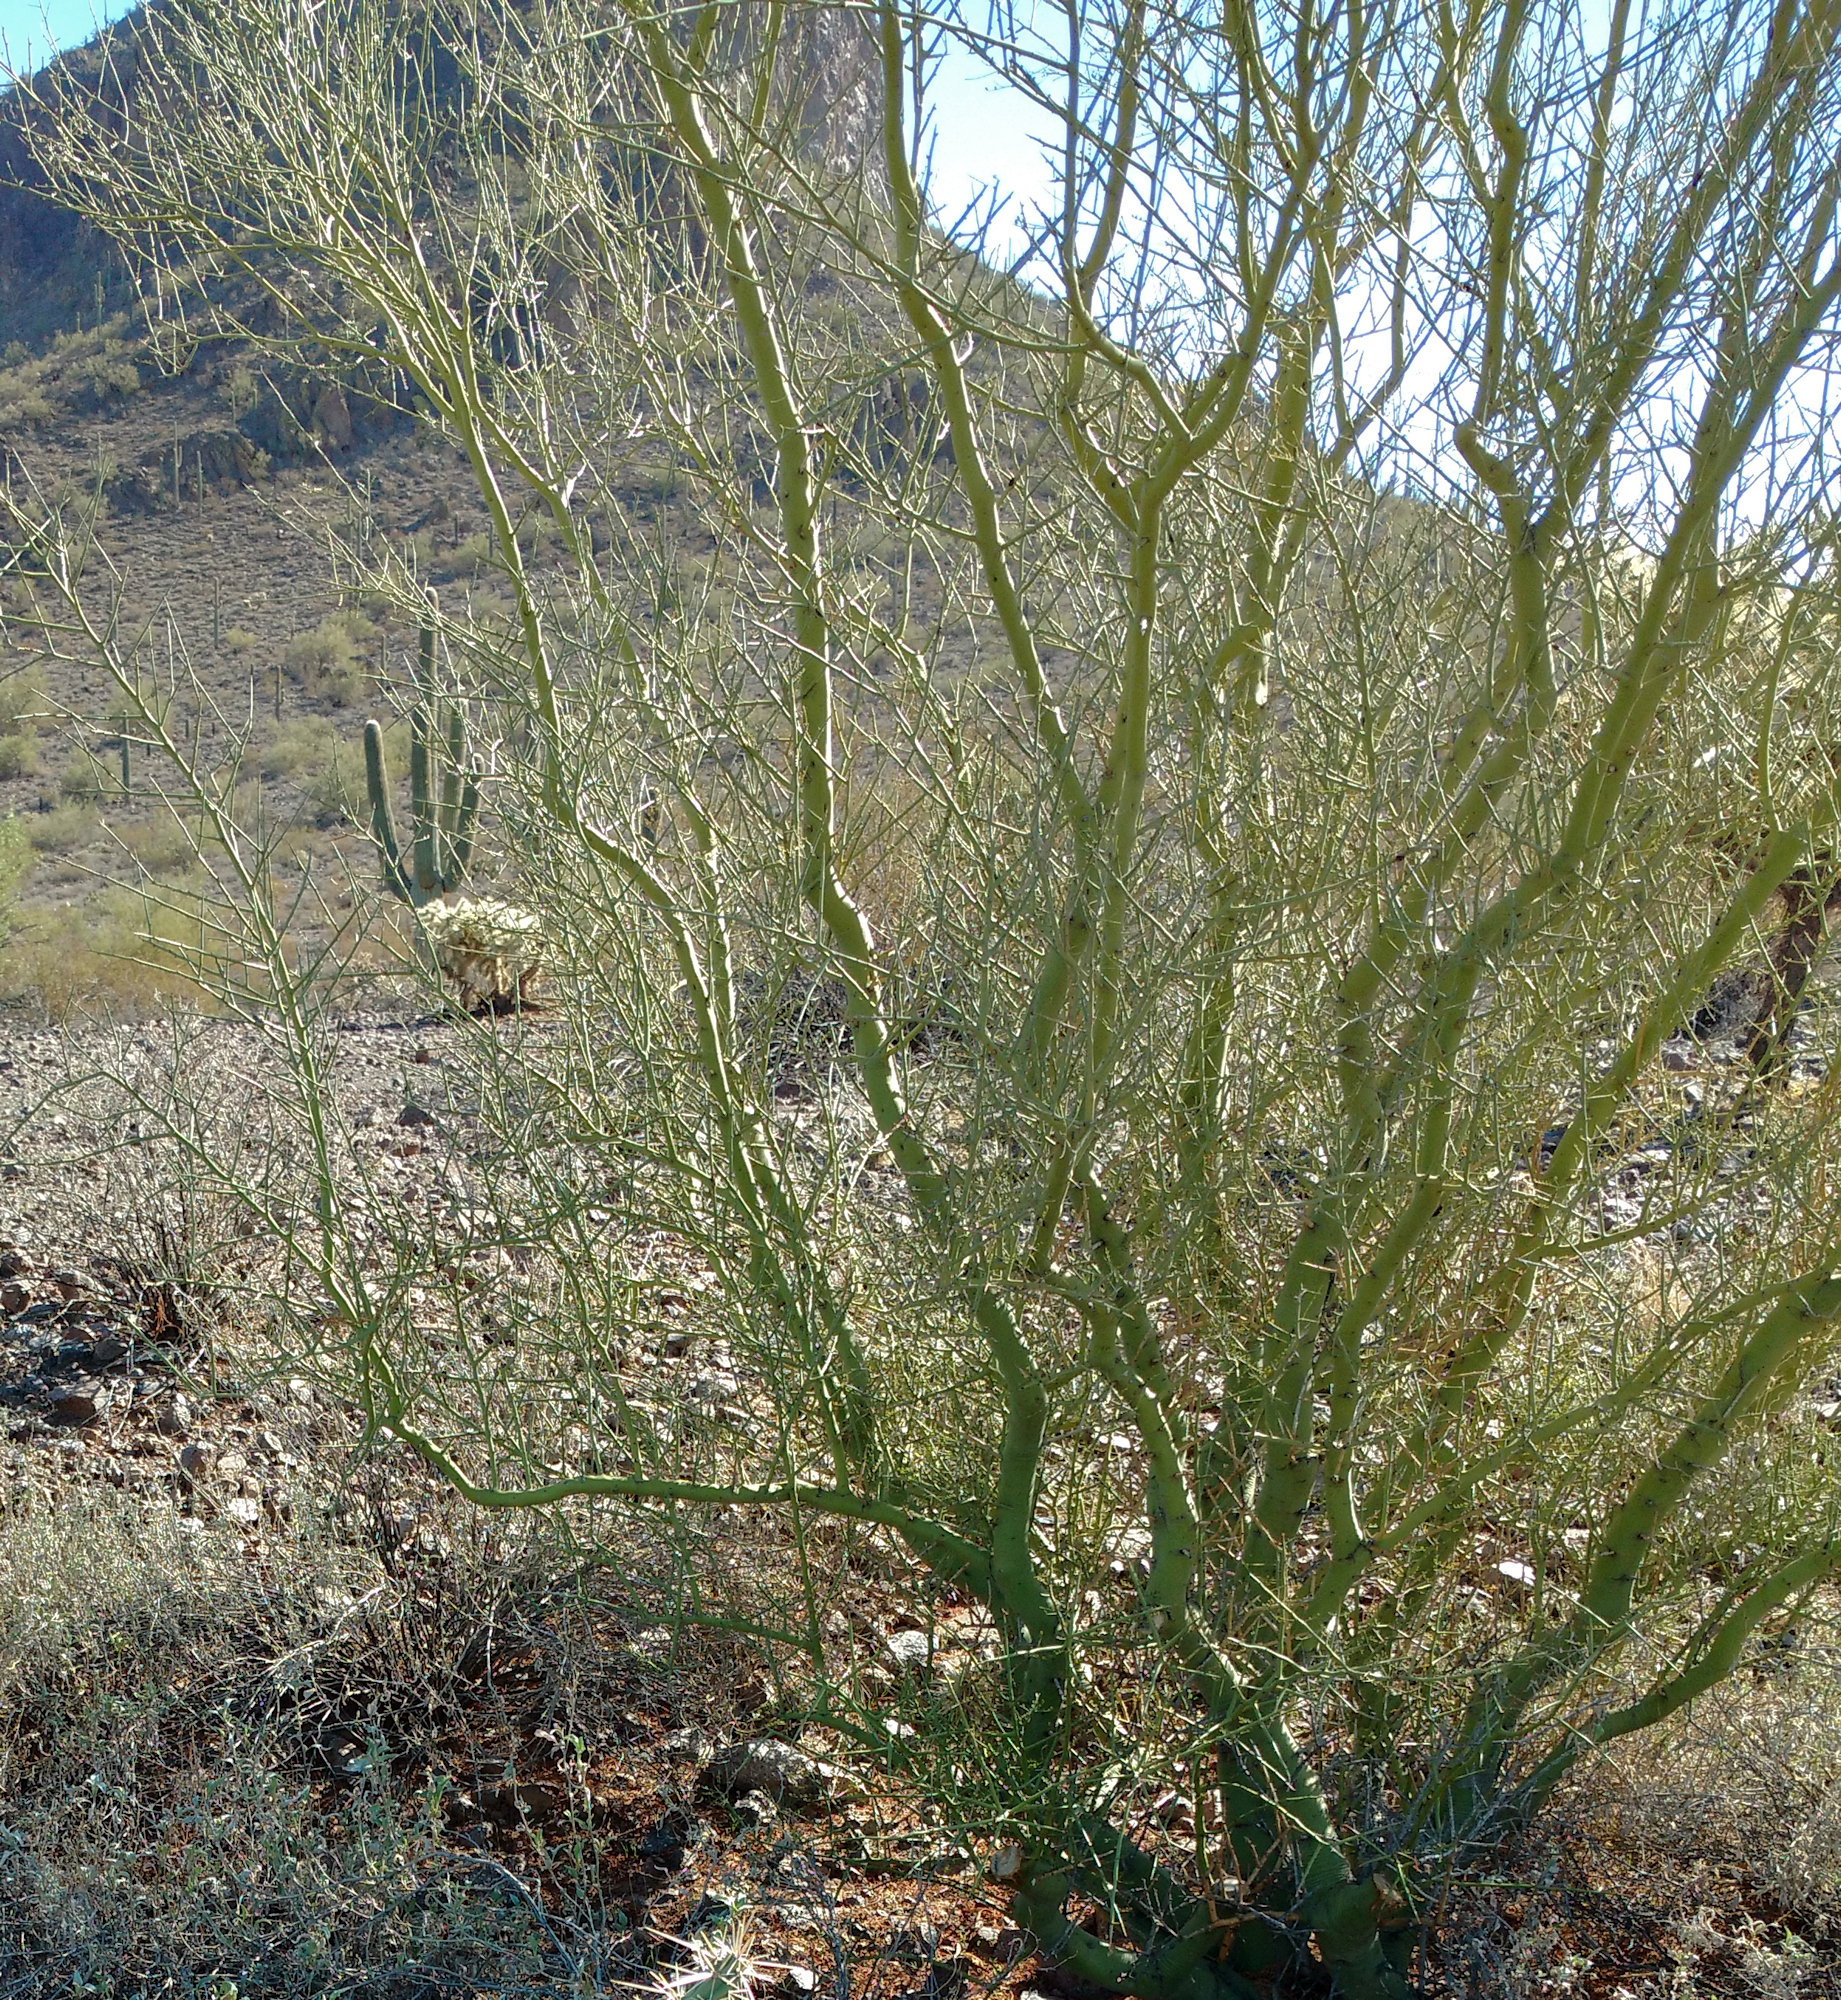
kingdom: Plantae
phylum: Tracheophyta
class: Magnoliopsida
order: Fabales
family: Fabaceae
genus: Parkinsonia
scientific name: Parkinsonia microphylla
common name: Yellow paloverde
